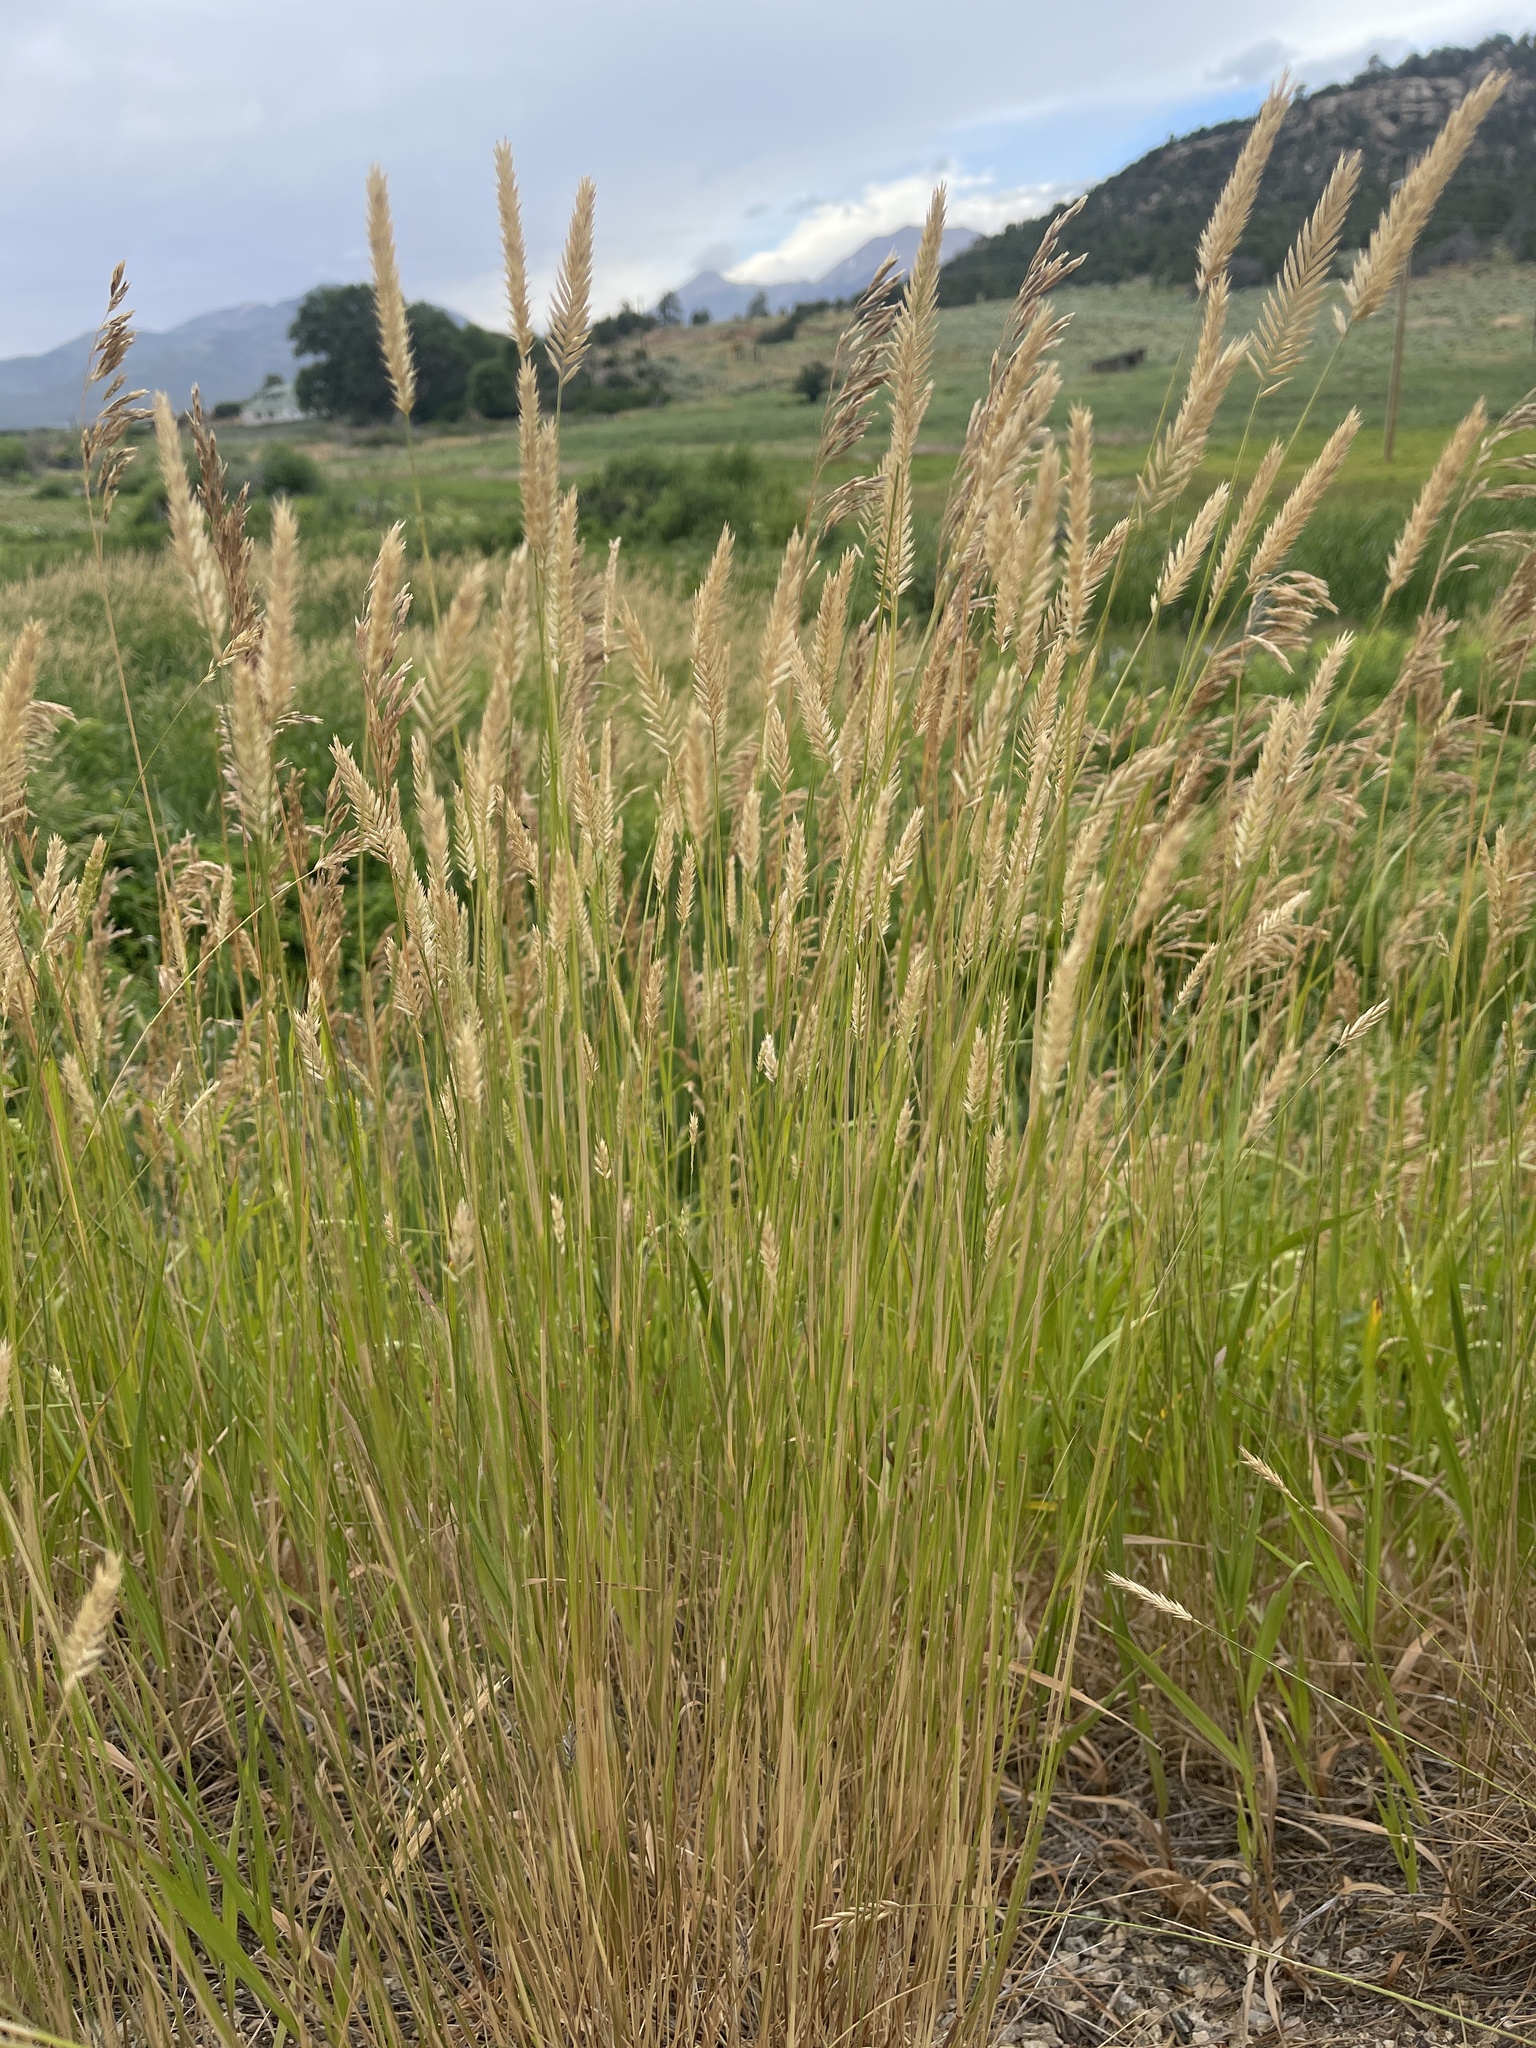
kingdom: Plantae
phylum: Tracheophyta
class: Liliopsida
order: Poales
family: Poaceae
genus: Agropyron
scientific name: Agropyron cristatum
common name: Crested wheatgrass
